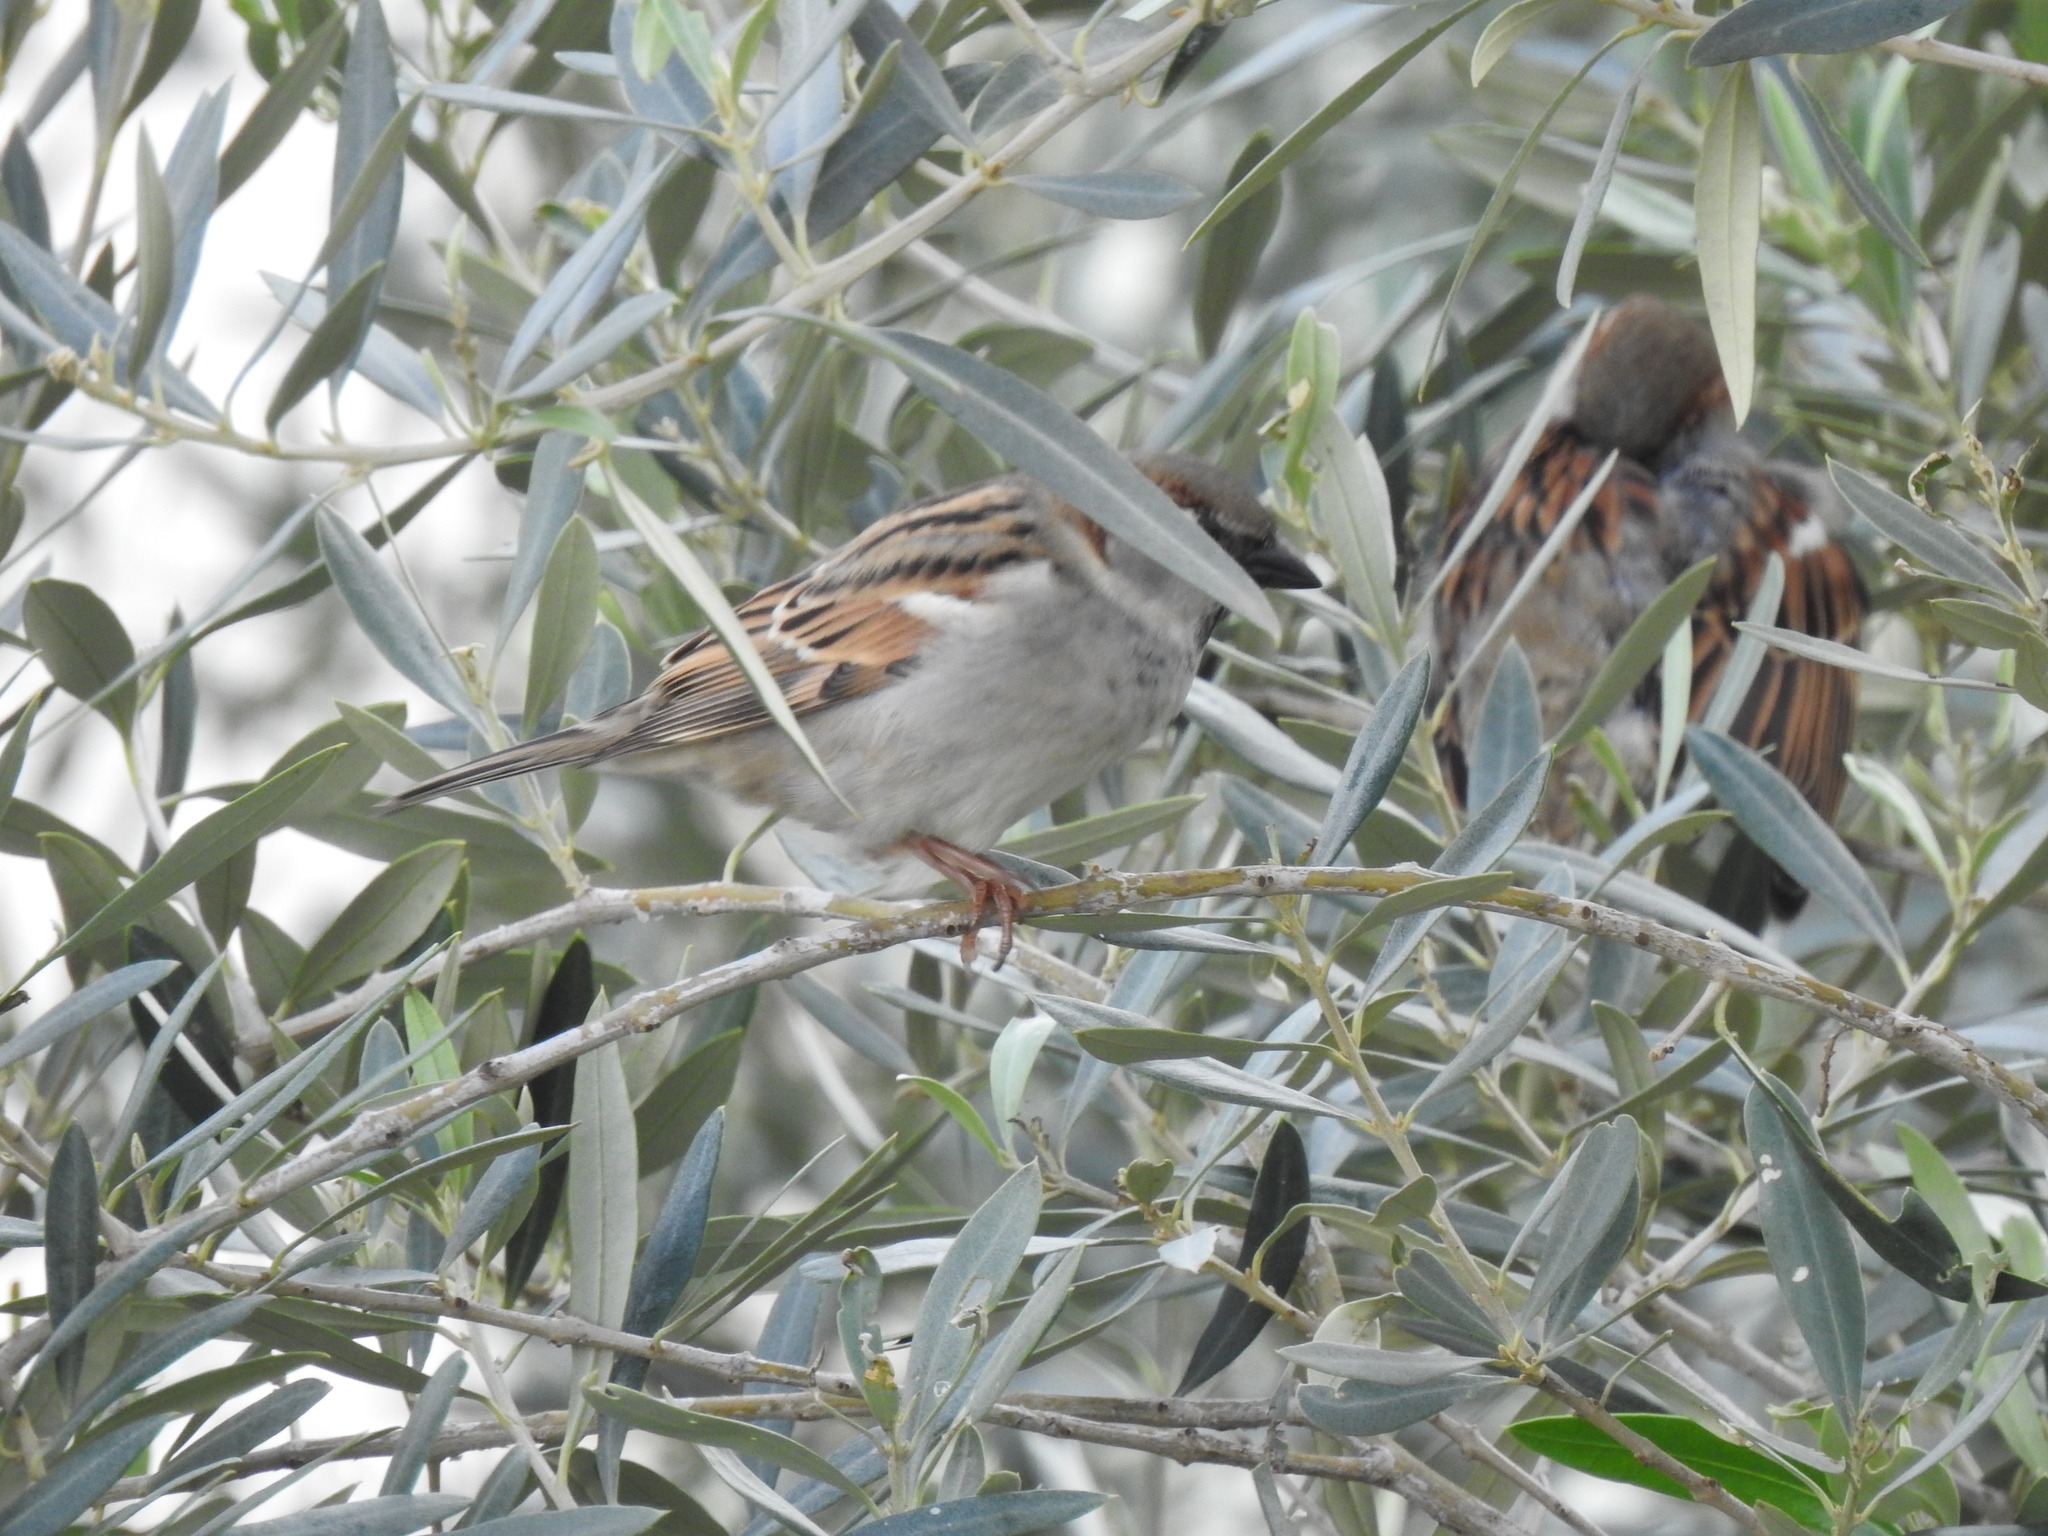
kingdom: Animalia
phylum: Chordata
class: Aves
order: Passeriformes
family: Passeridae
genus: Passer
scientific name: Passer domesticus
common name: House sparrow
